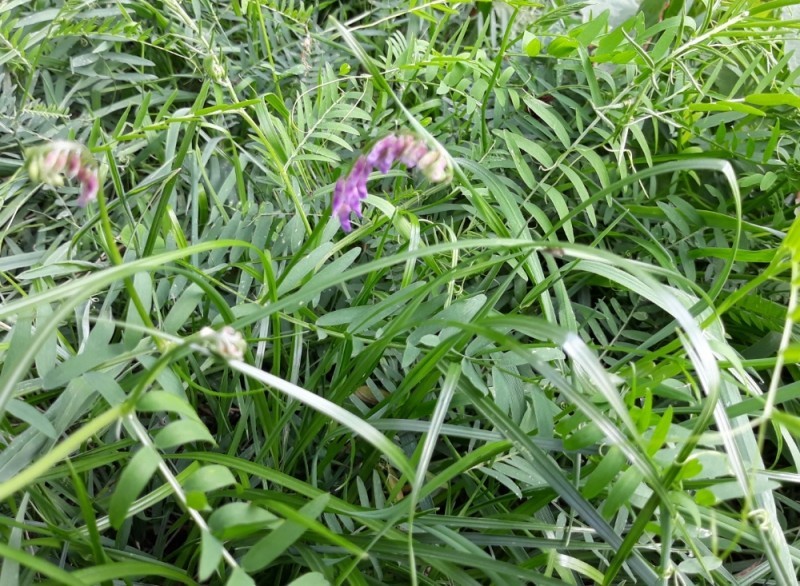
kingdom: Plantae
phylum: Tracheophyta
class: Magnoliopsida
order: Fabales
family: Fabaceae
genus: Vicia
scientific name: Vicia cracca
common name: Bird vetch
